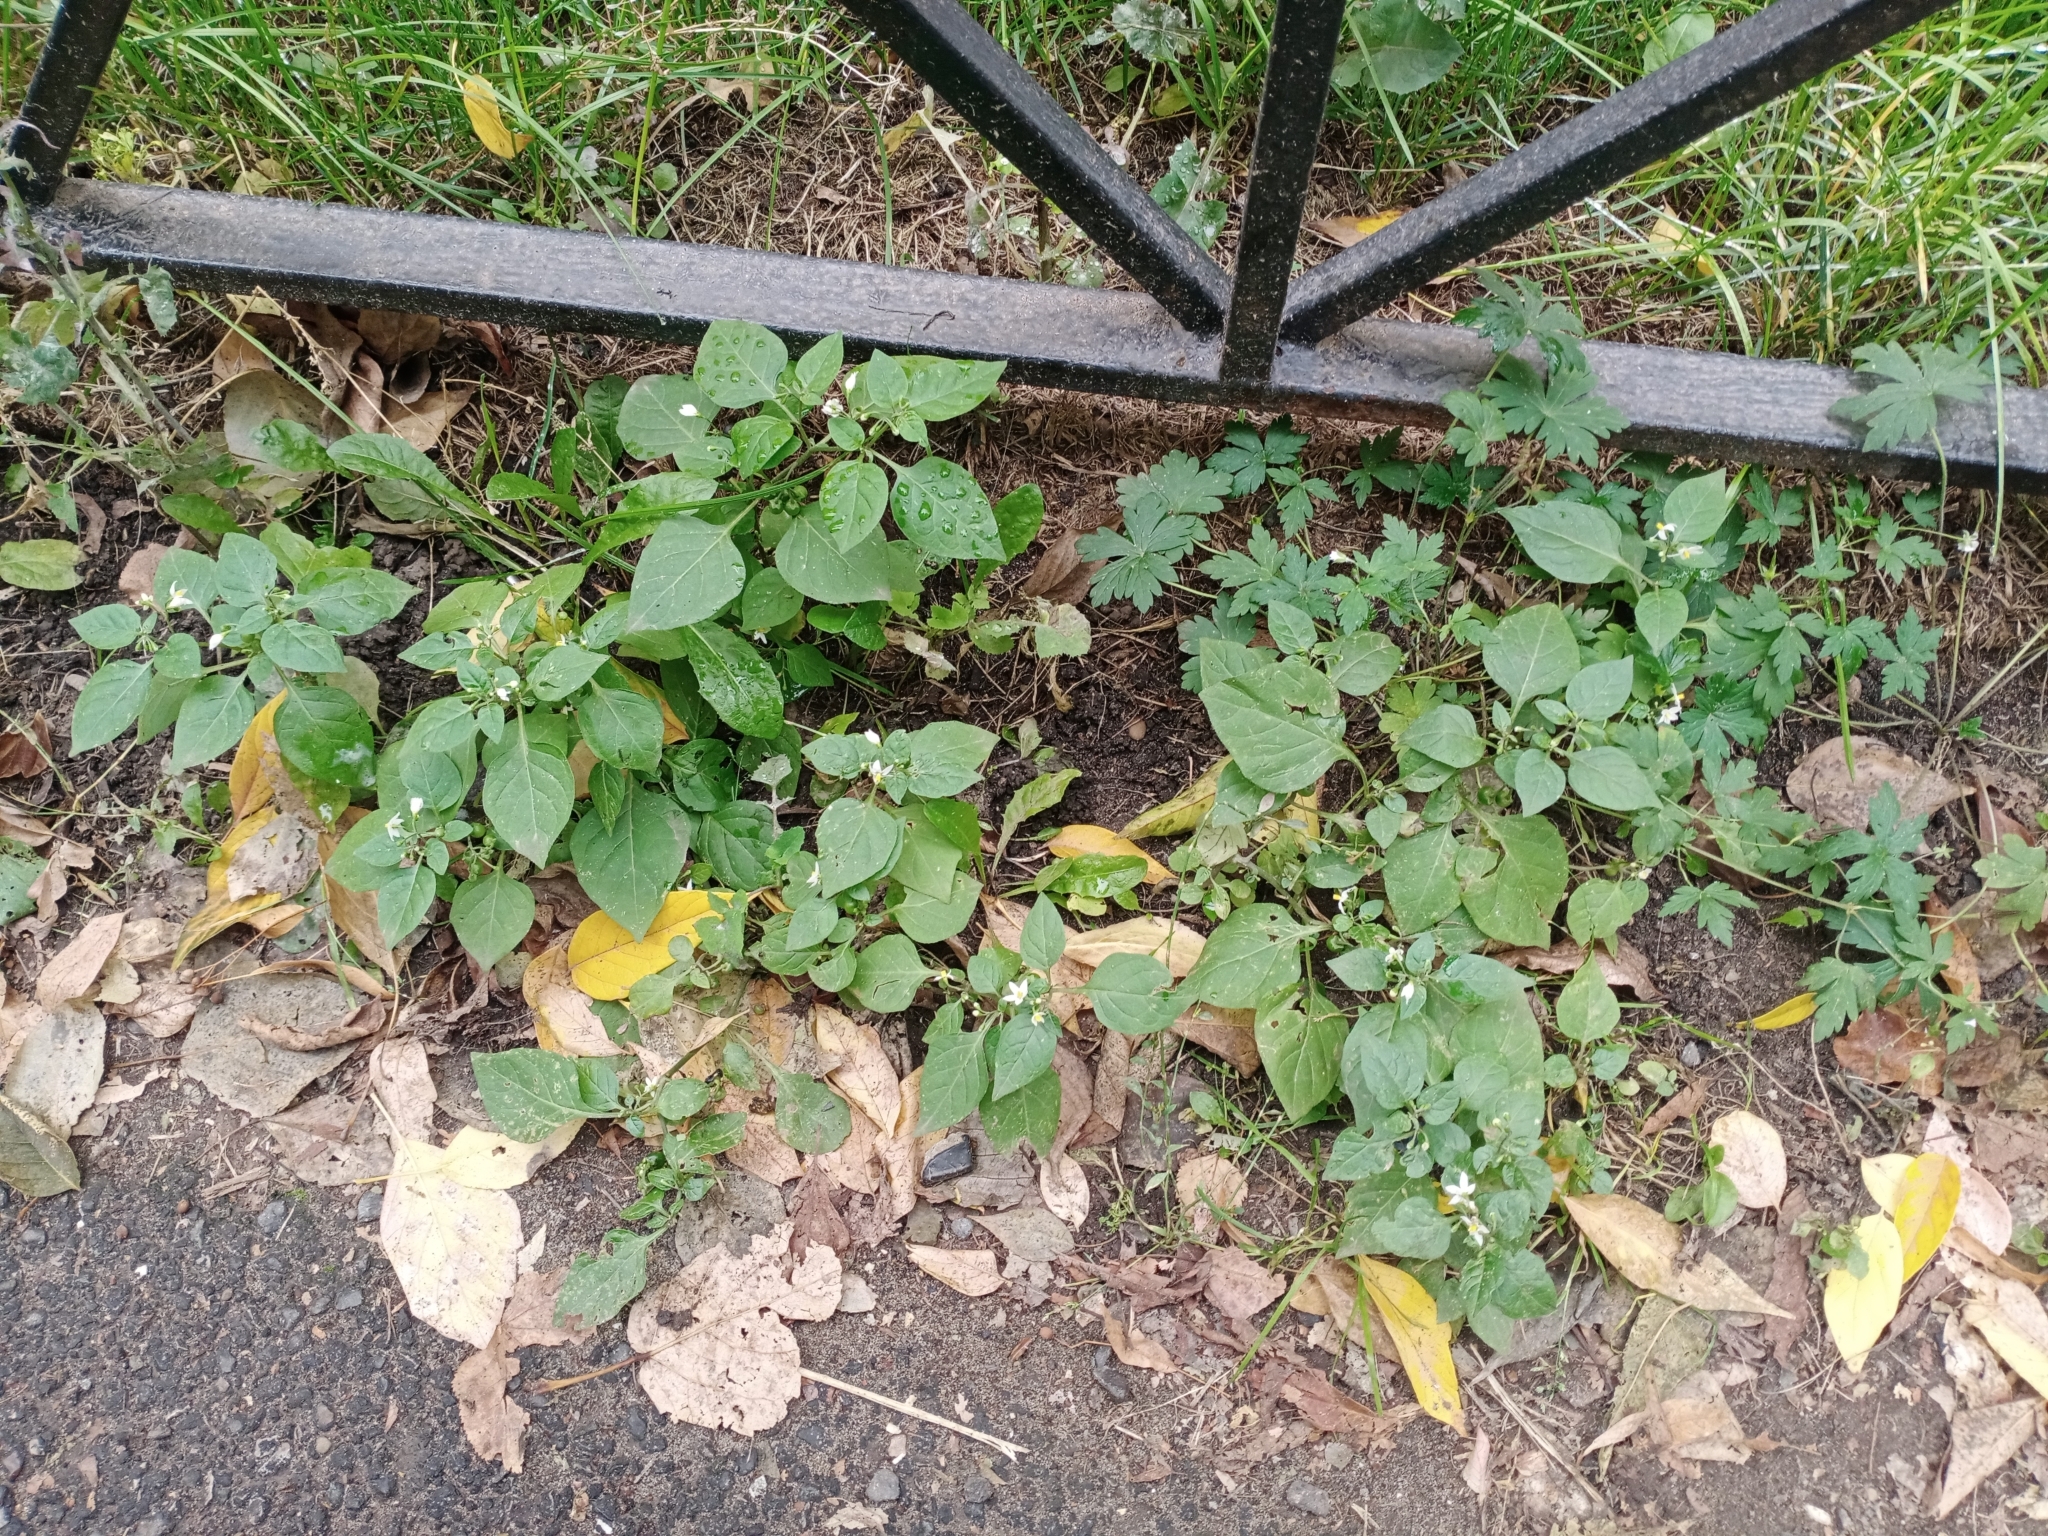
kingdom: Plantae
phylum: Tracheophyta
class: Magnoliopsida
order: Solanales
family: Solanaceae
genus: Solanum
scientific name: Solanum nigrum
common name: Black nightshade
